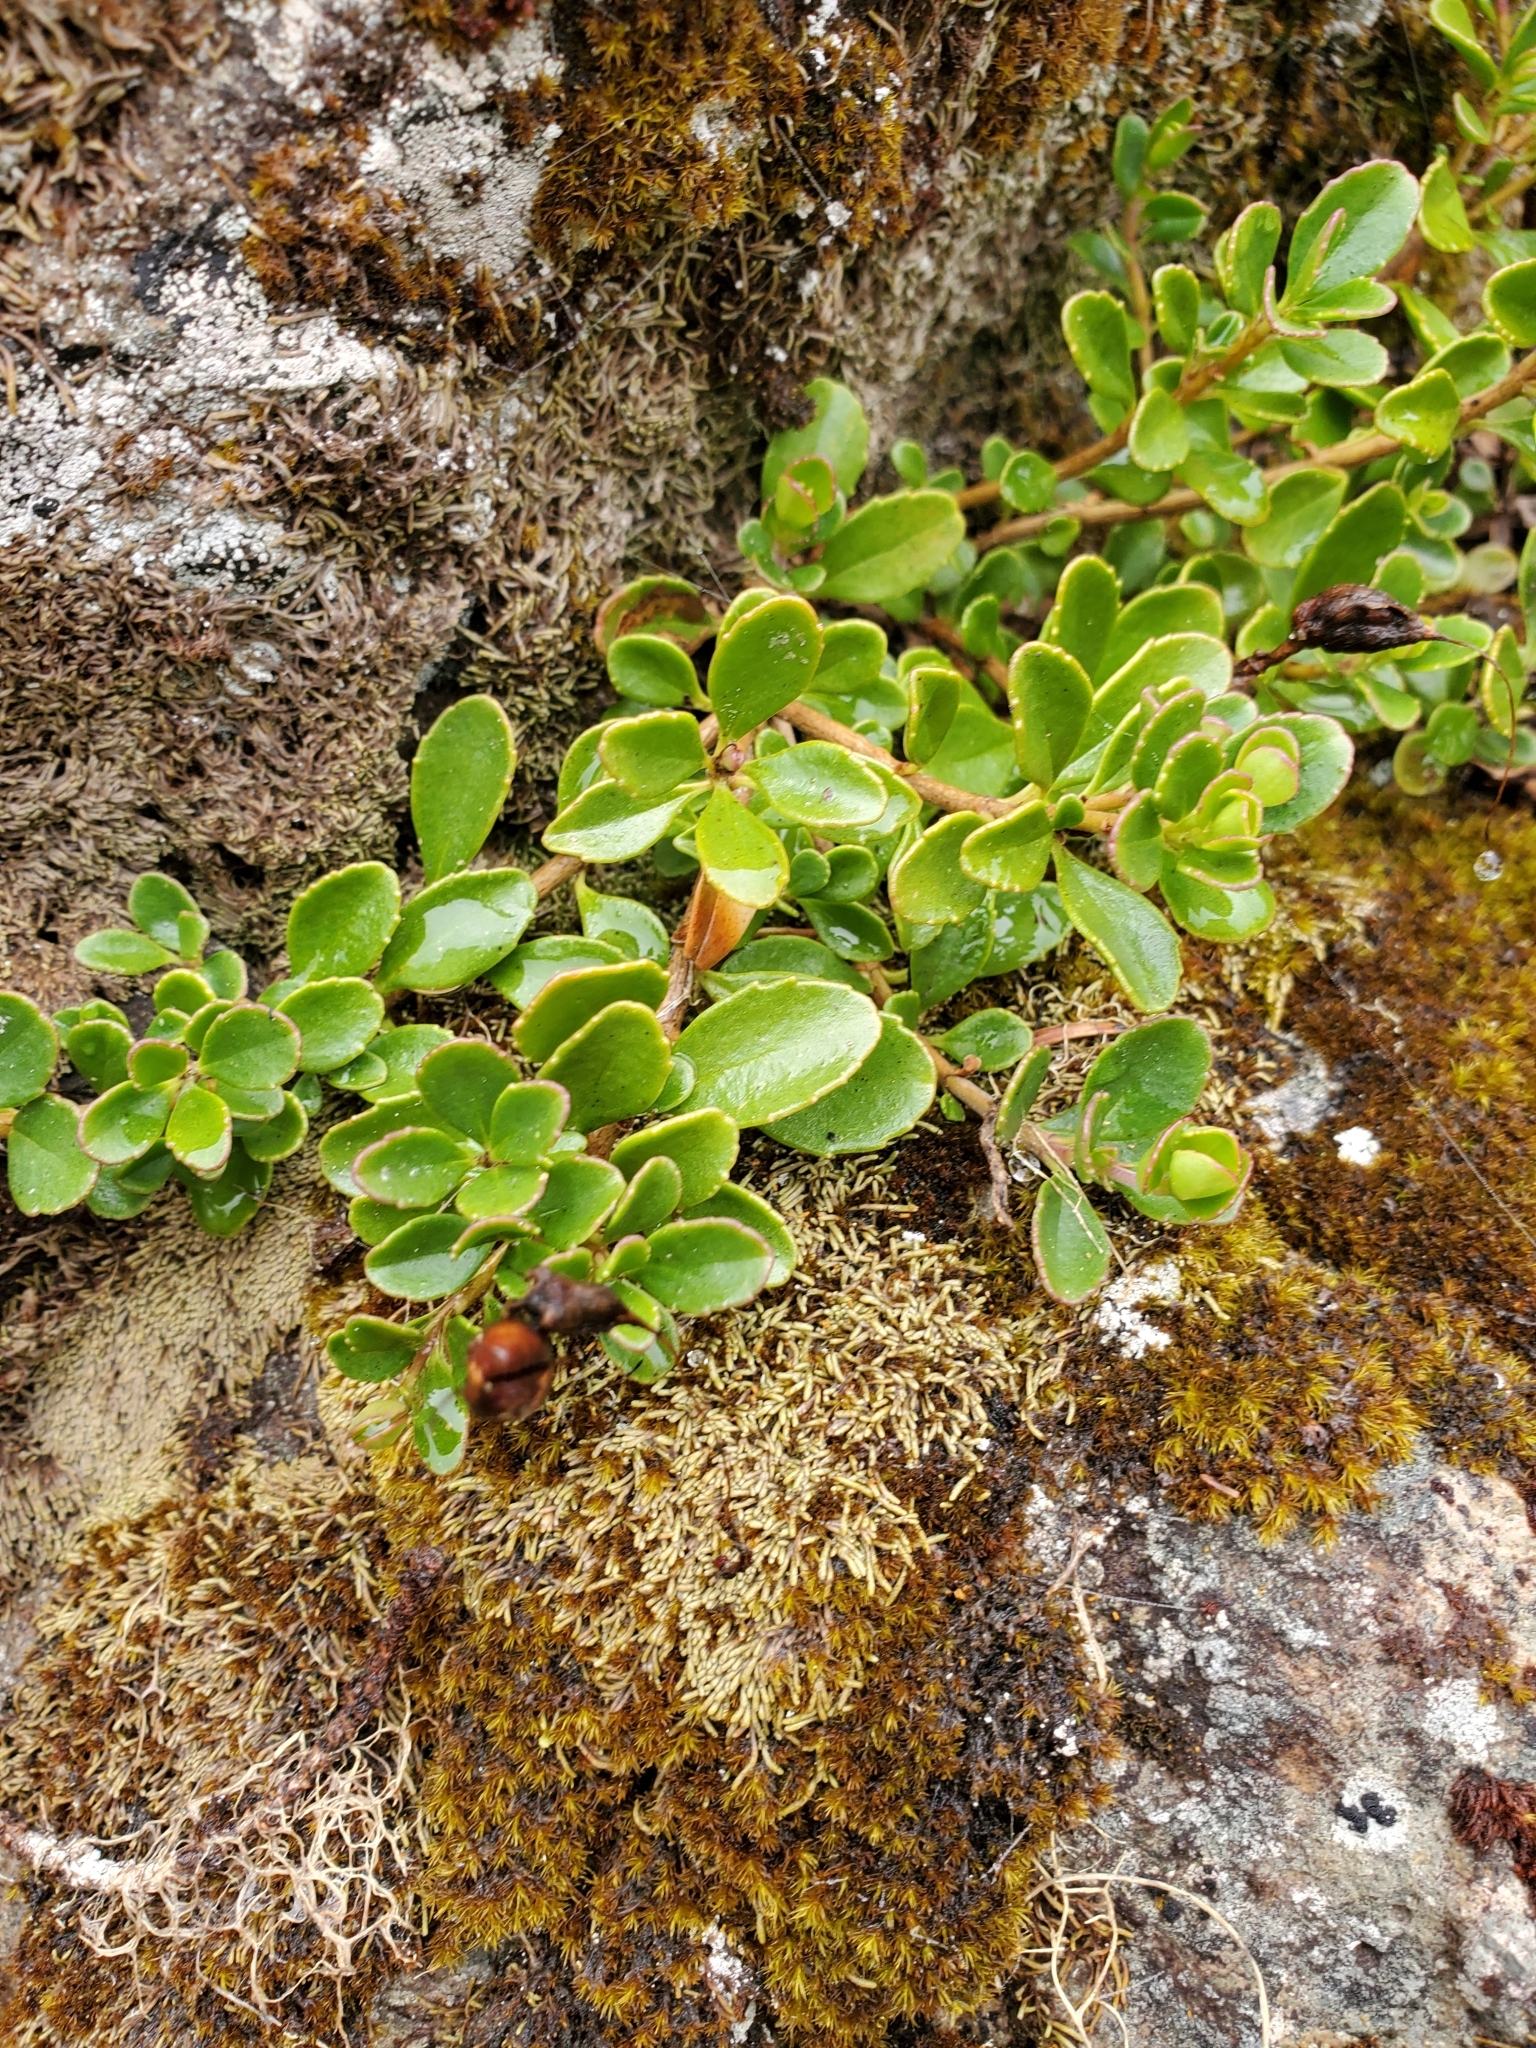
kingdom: Plantae
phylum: Tracheophyta
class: Magnoliopsida
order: Lamiales
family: Plantaginaceae
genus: Penstemon
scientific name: Penstemon davidsonii
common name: Davidson's penstemon
